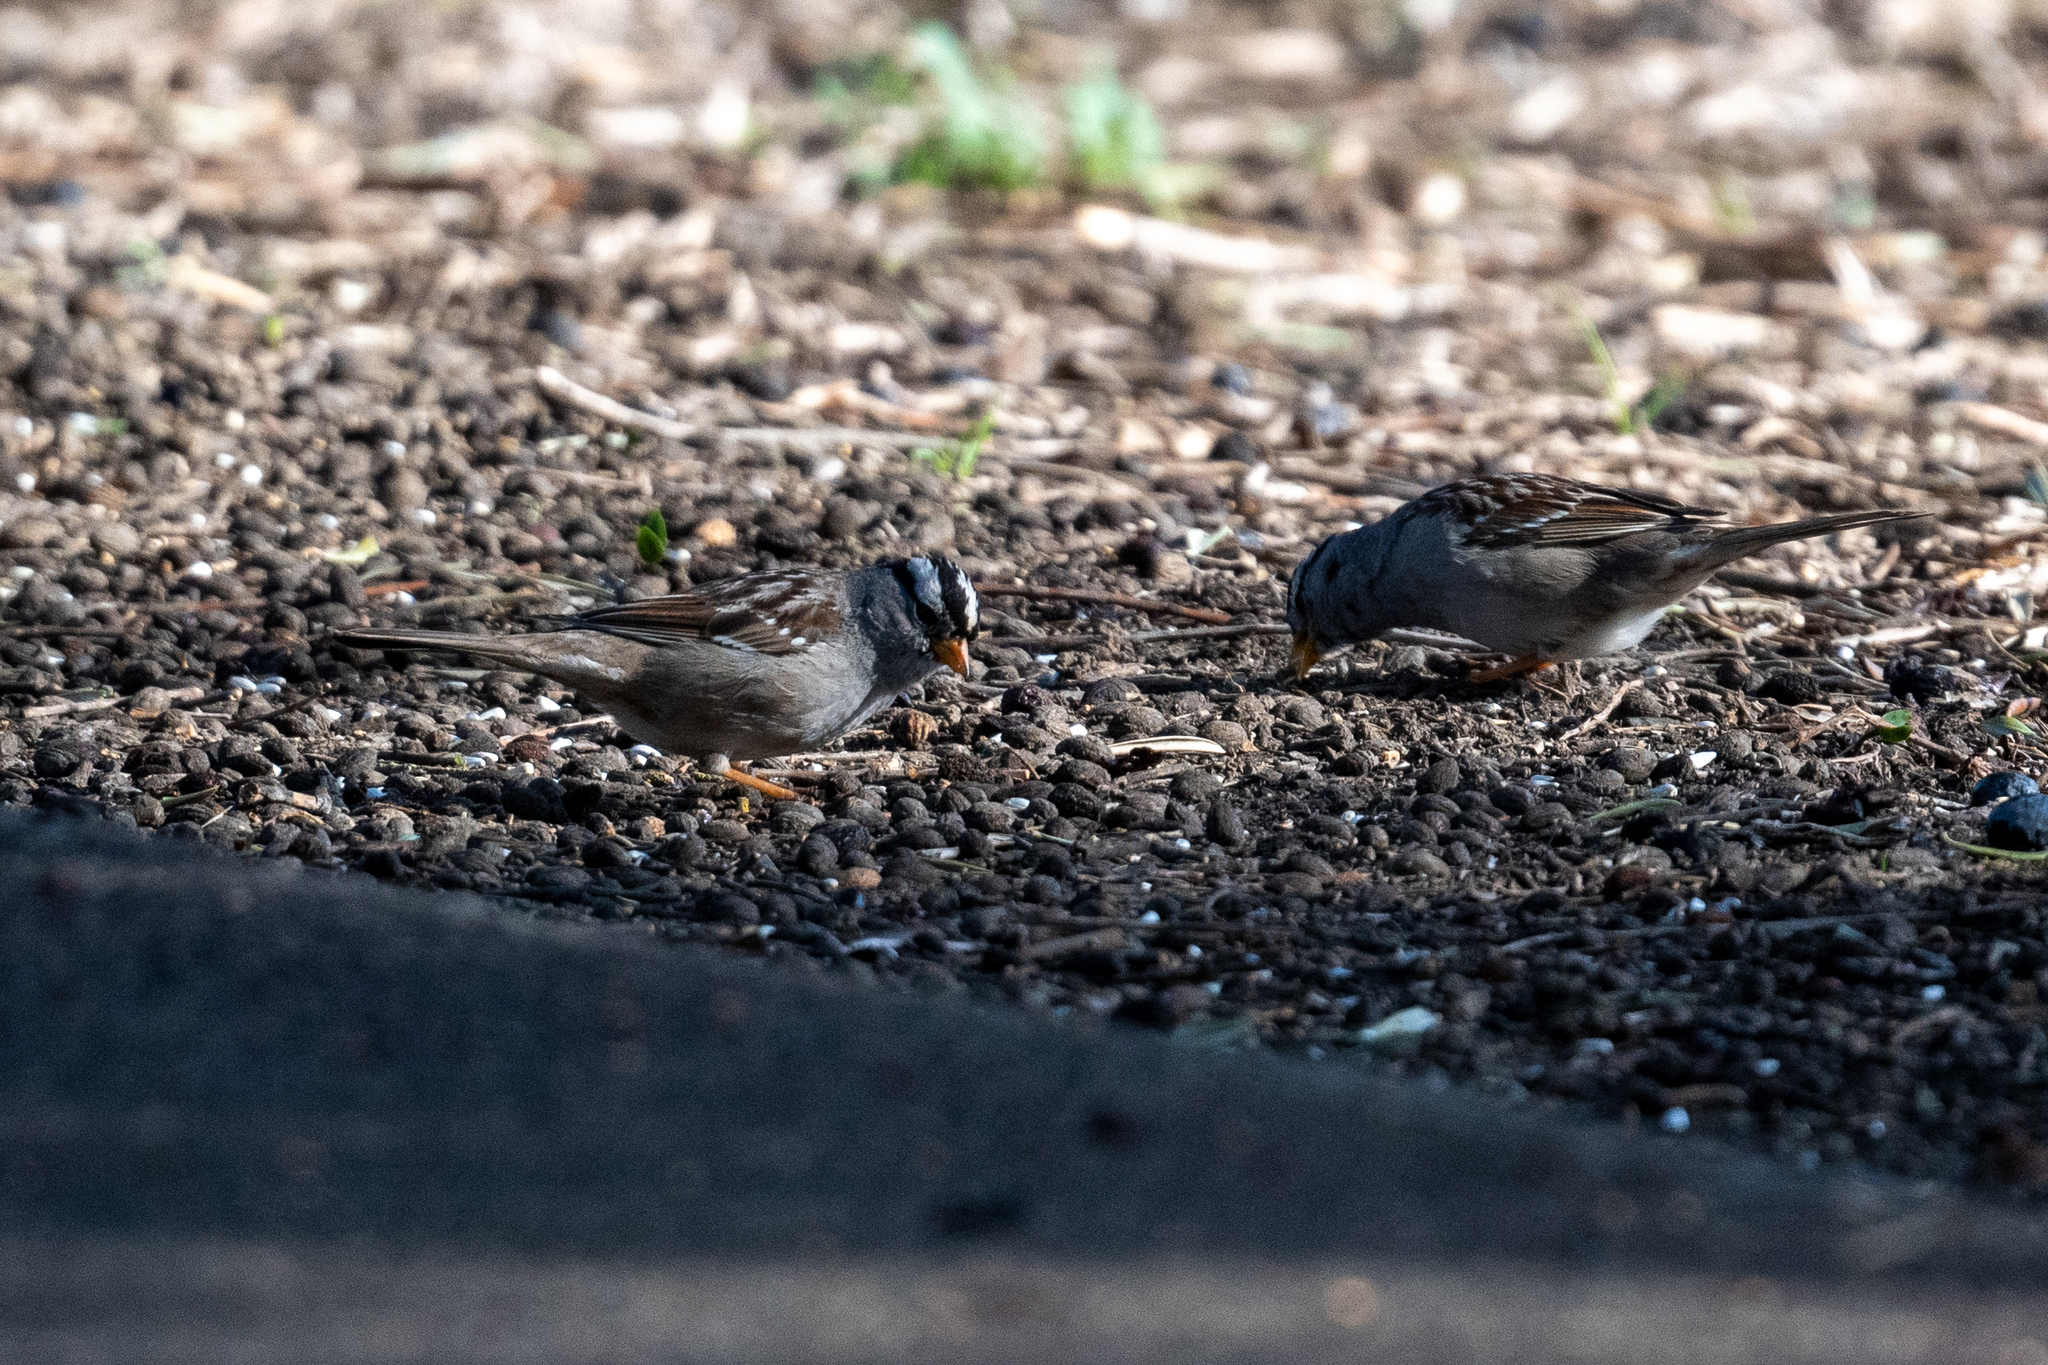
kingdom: Animalia
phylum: Chordata
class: Aves
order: Passeriformes
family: Passerellidae
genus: Zonotrichia
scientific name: Zonotrichia leucophrys
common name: White-crowned sparrow
